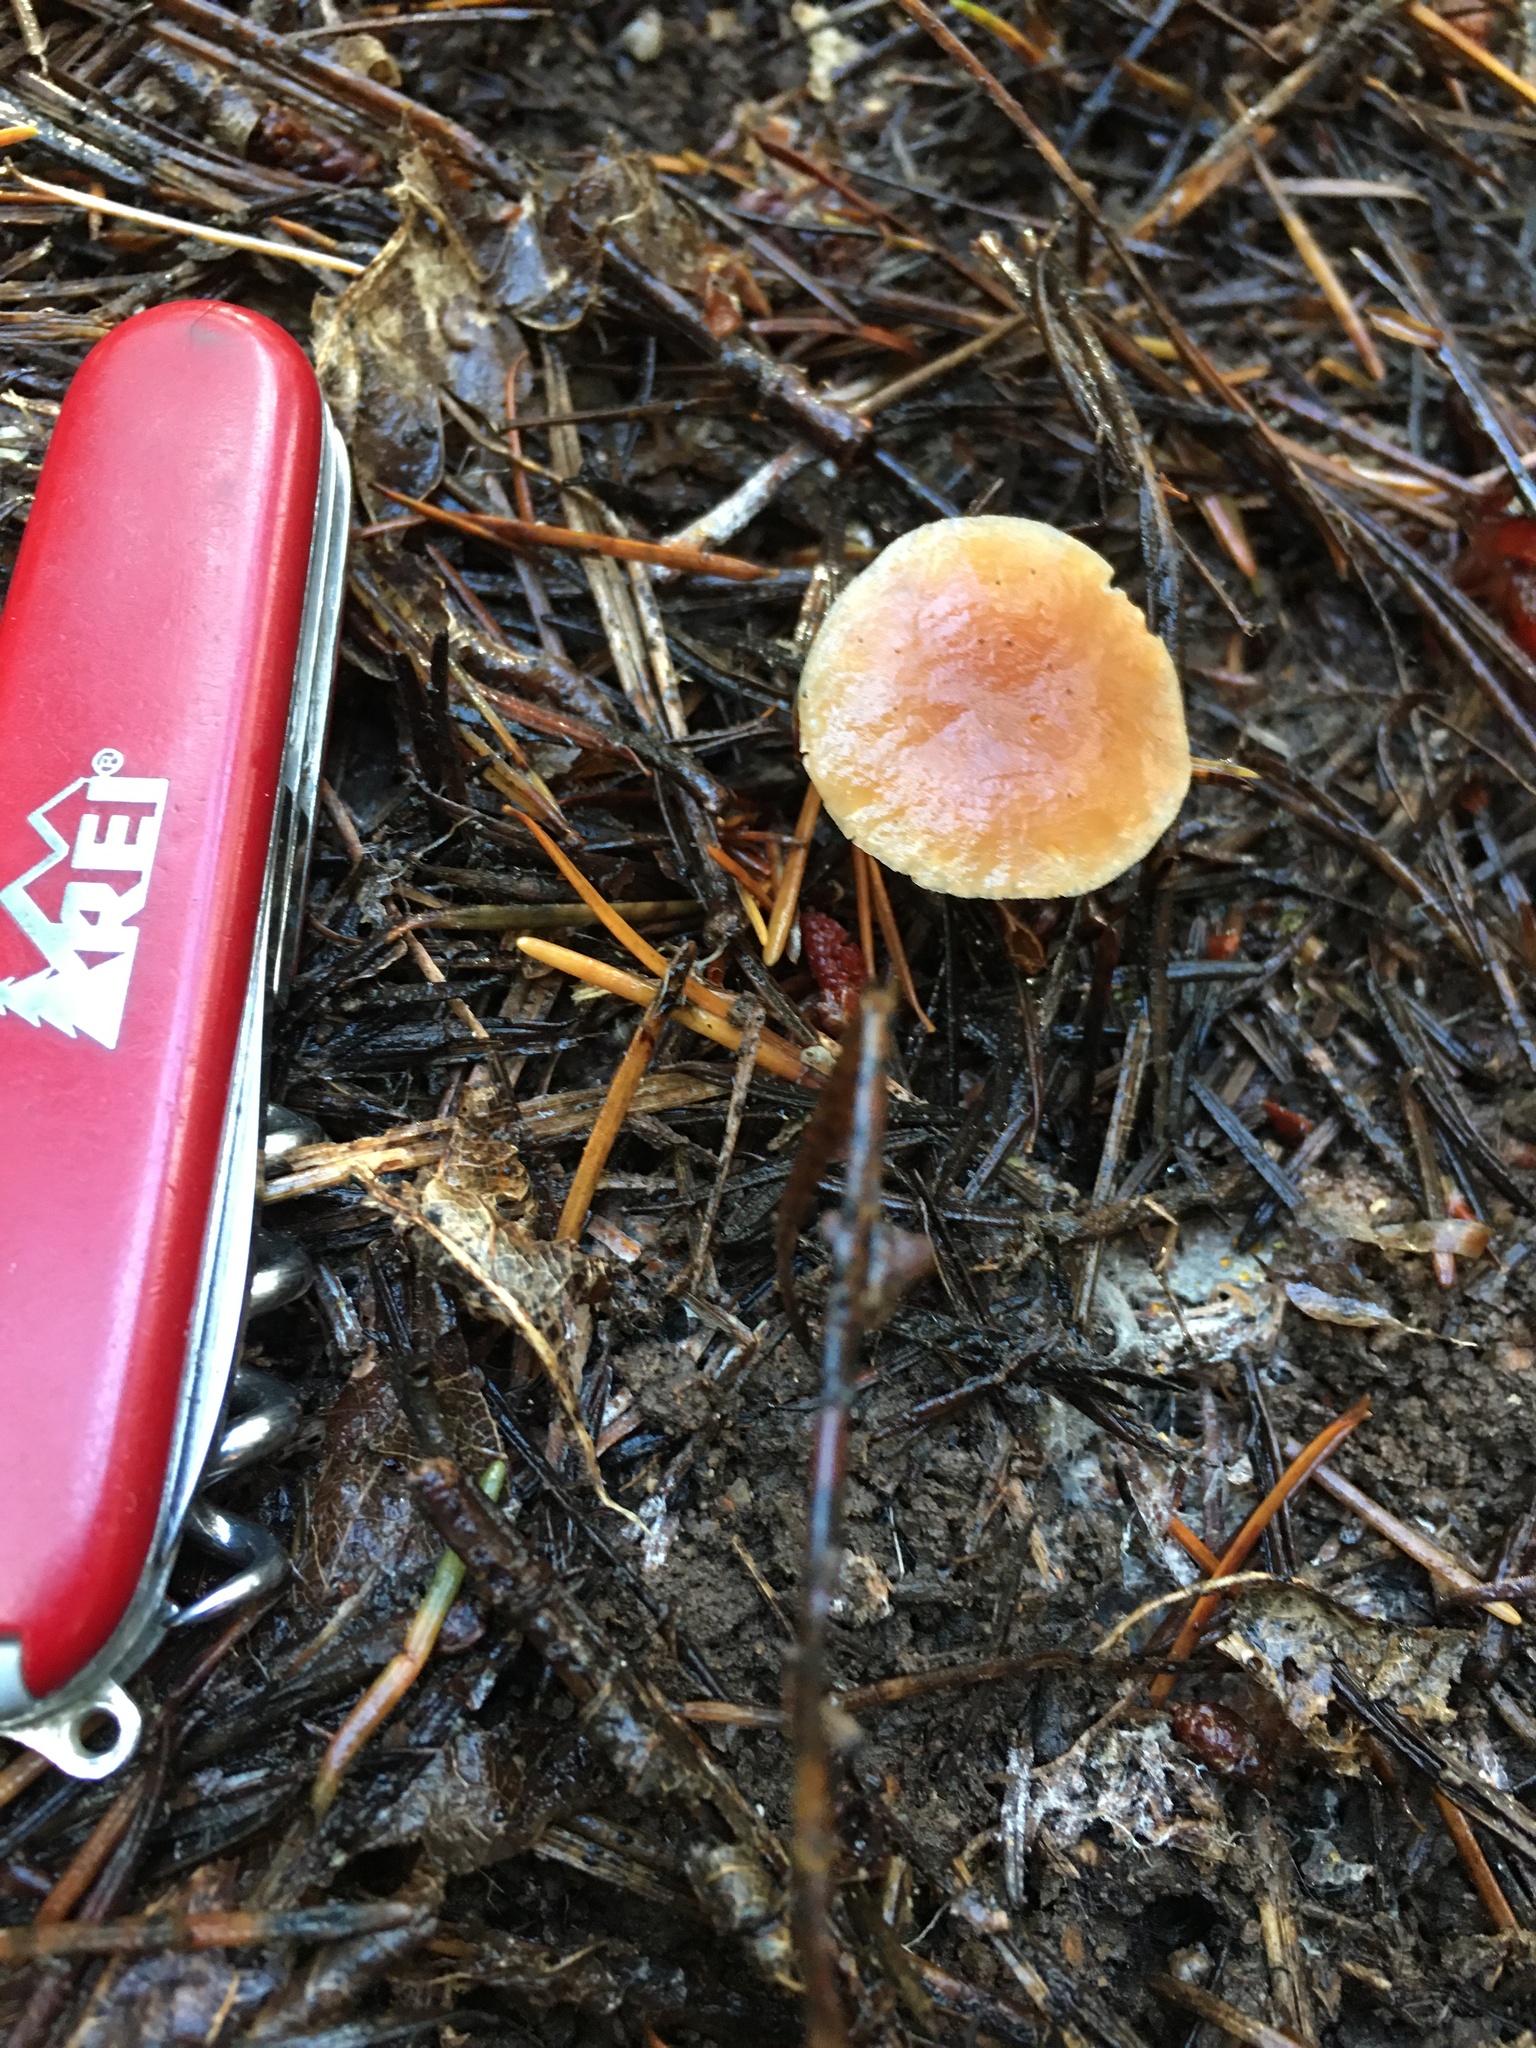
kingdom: Fungi
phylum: Basidiomycota
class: Agaricomycetes
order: Agaricales
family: Omphalotaceae
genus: Gymnopus
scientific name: Gymnopus dryophilus
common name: Penny top
